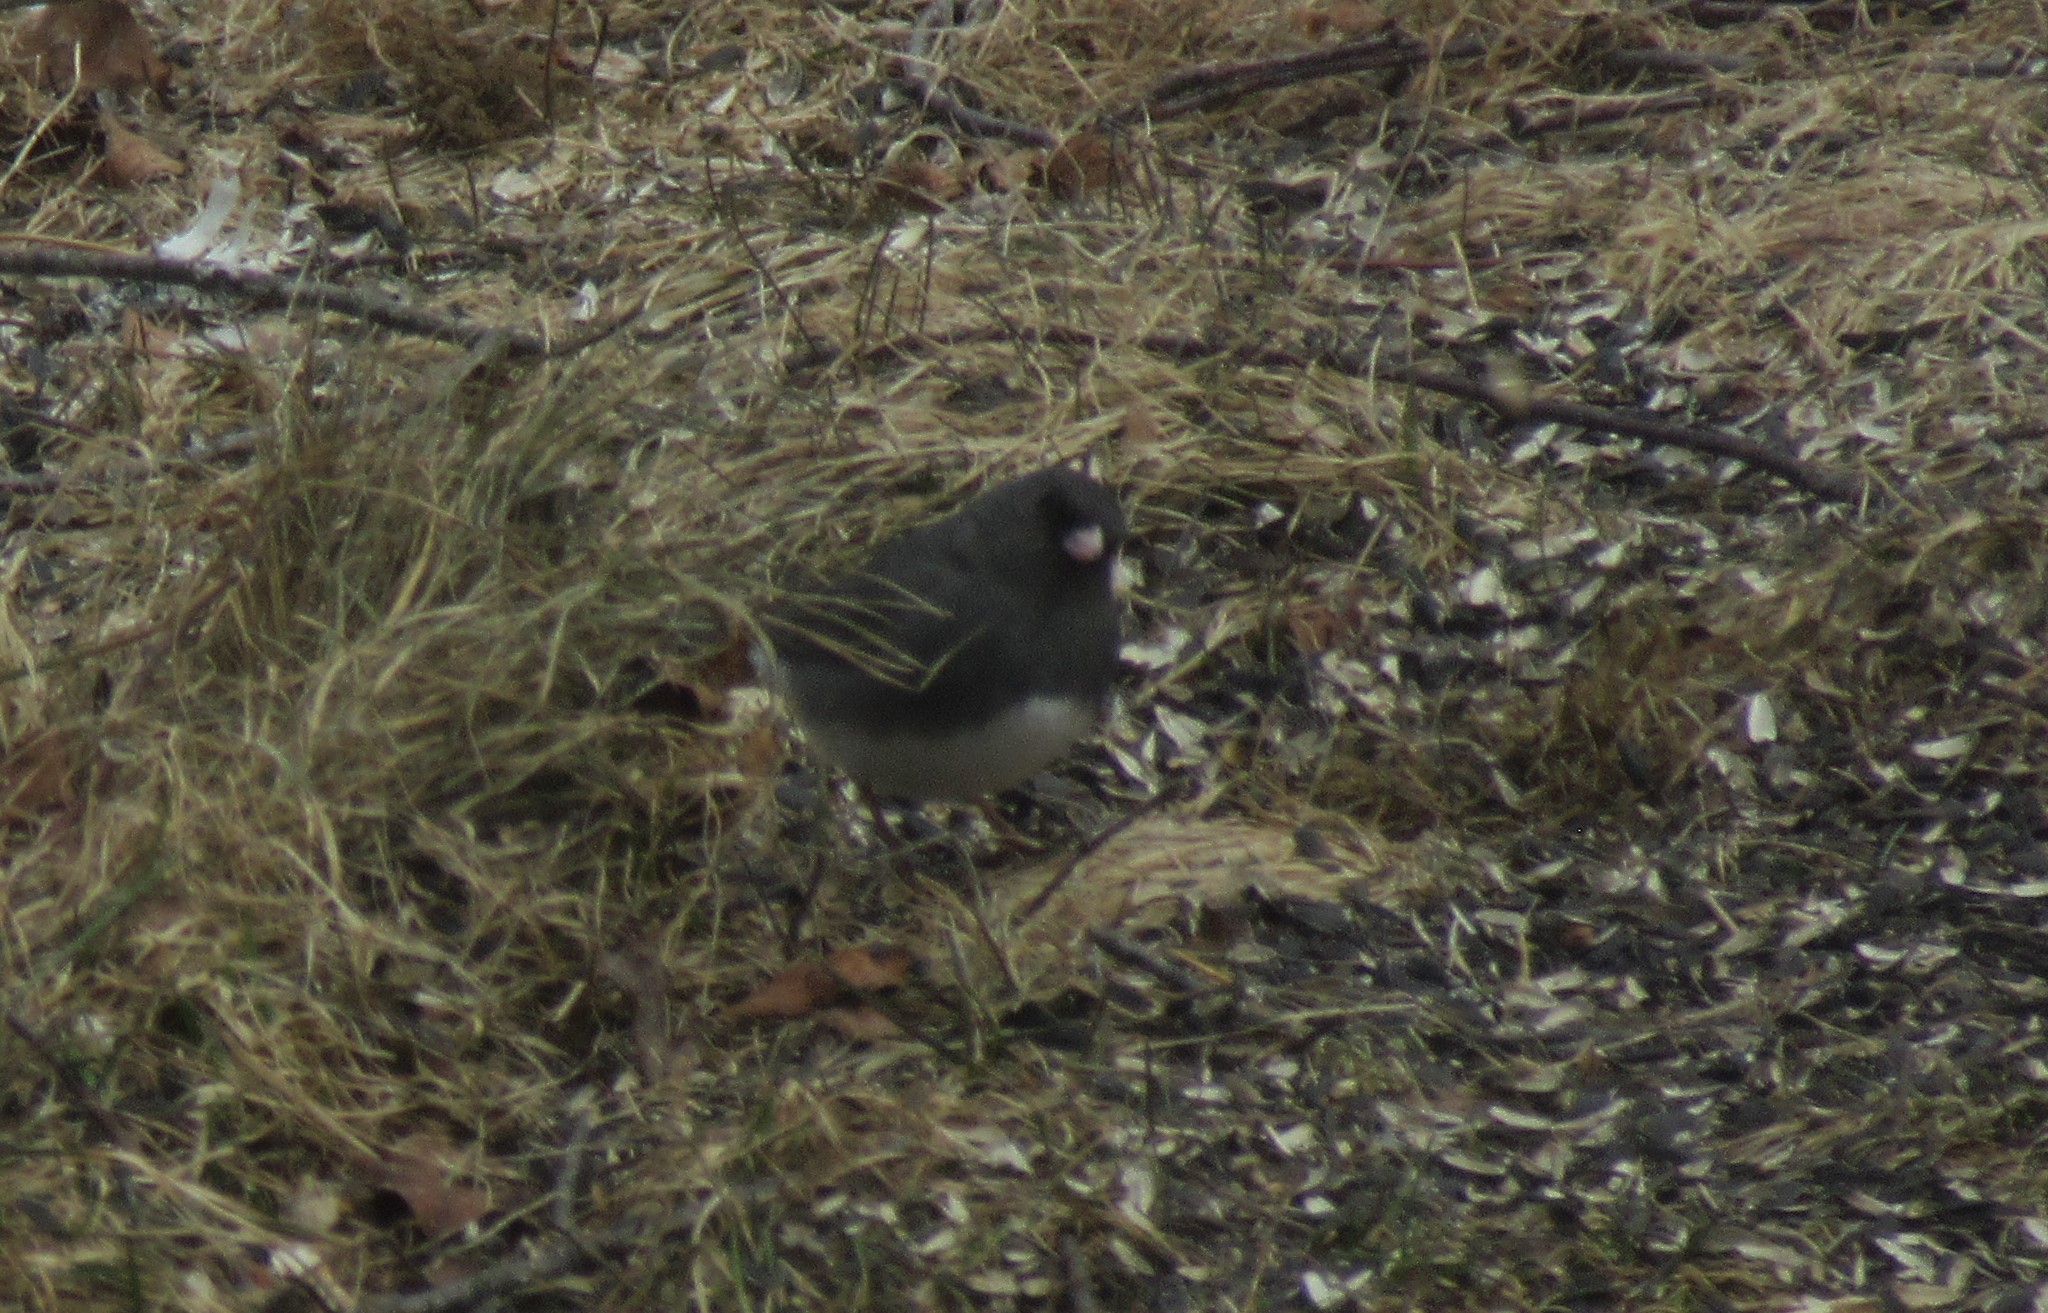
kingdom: Animalia
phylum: Chordata
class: Aves
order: Passeriformes
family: Passerellidae
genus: Junco
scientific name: Junco hyemalis
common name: Dark-eyed junco
